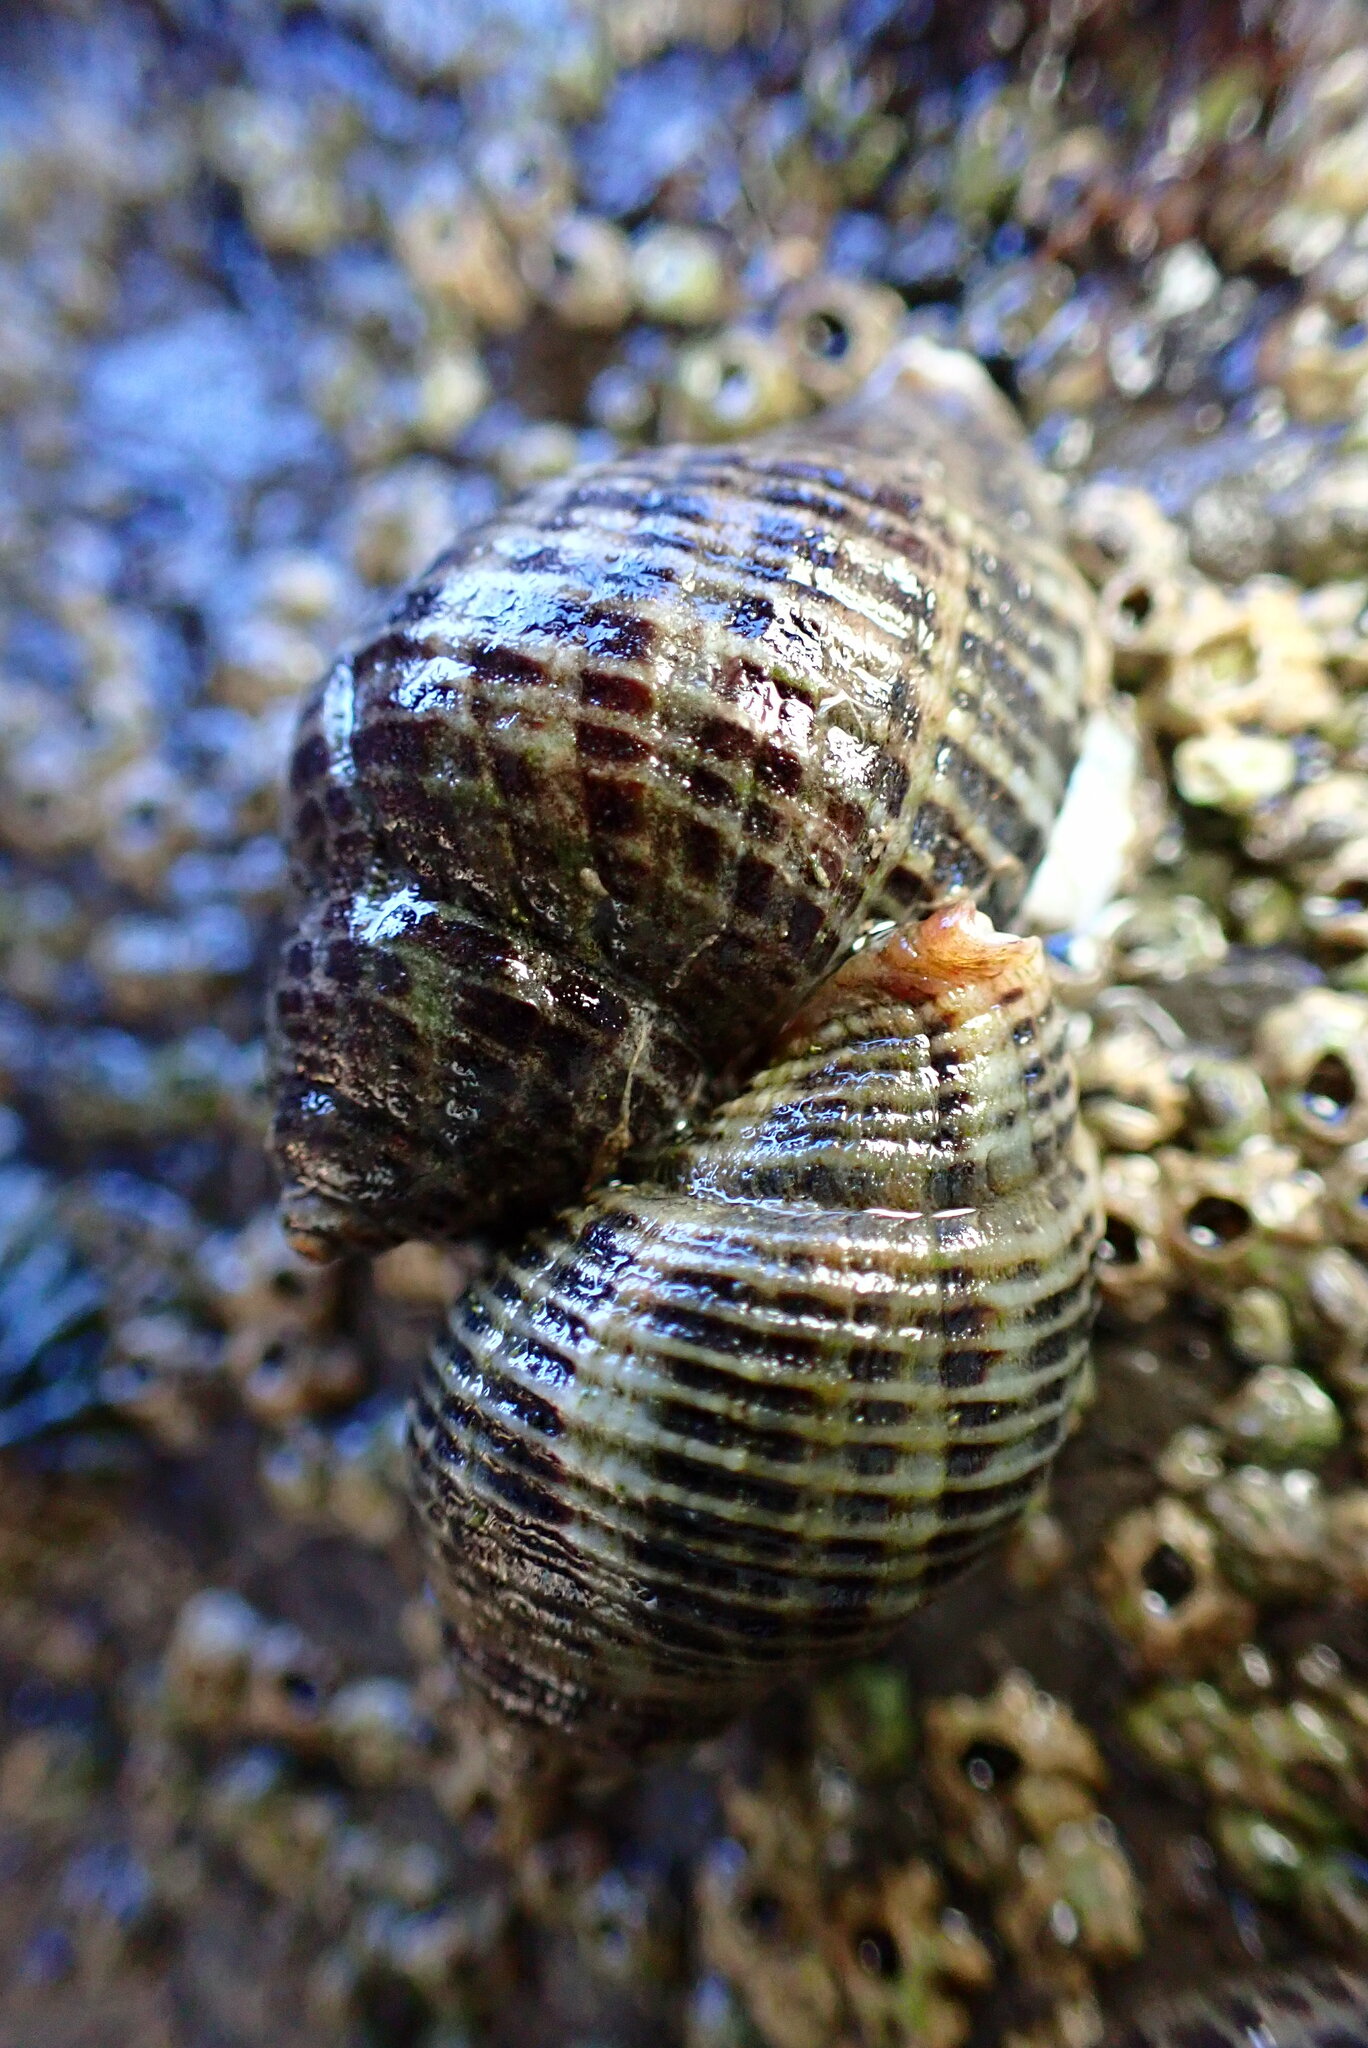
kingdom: Animalia
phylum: Mollusca
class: Gastropoda
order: Neogastropoda
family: Muricidae
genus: Acanthinucella
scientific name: Acanthinucella spirata
